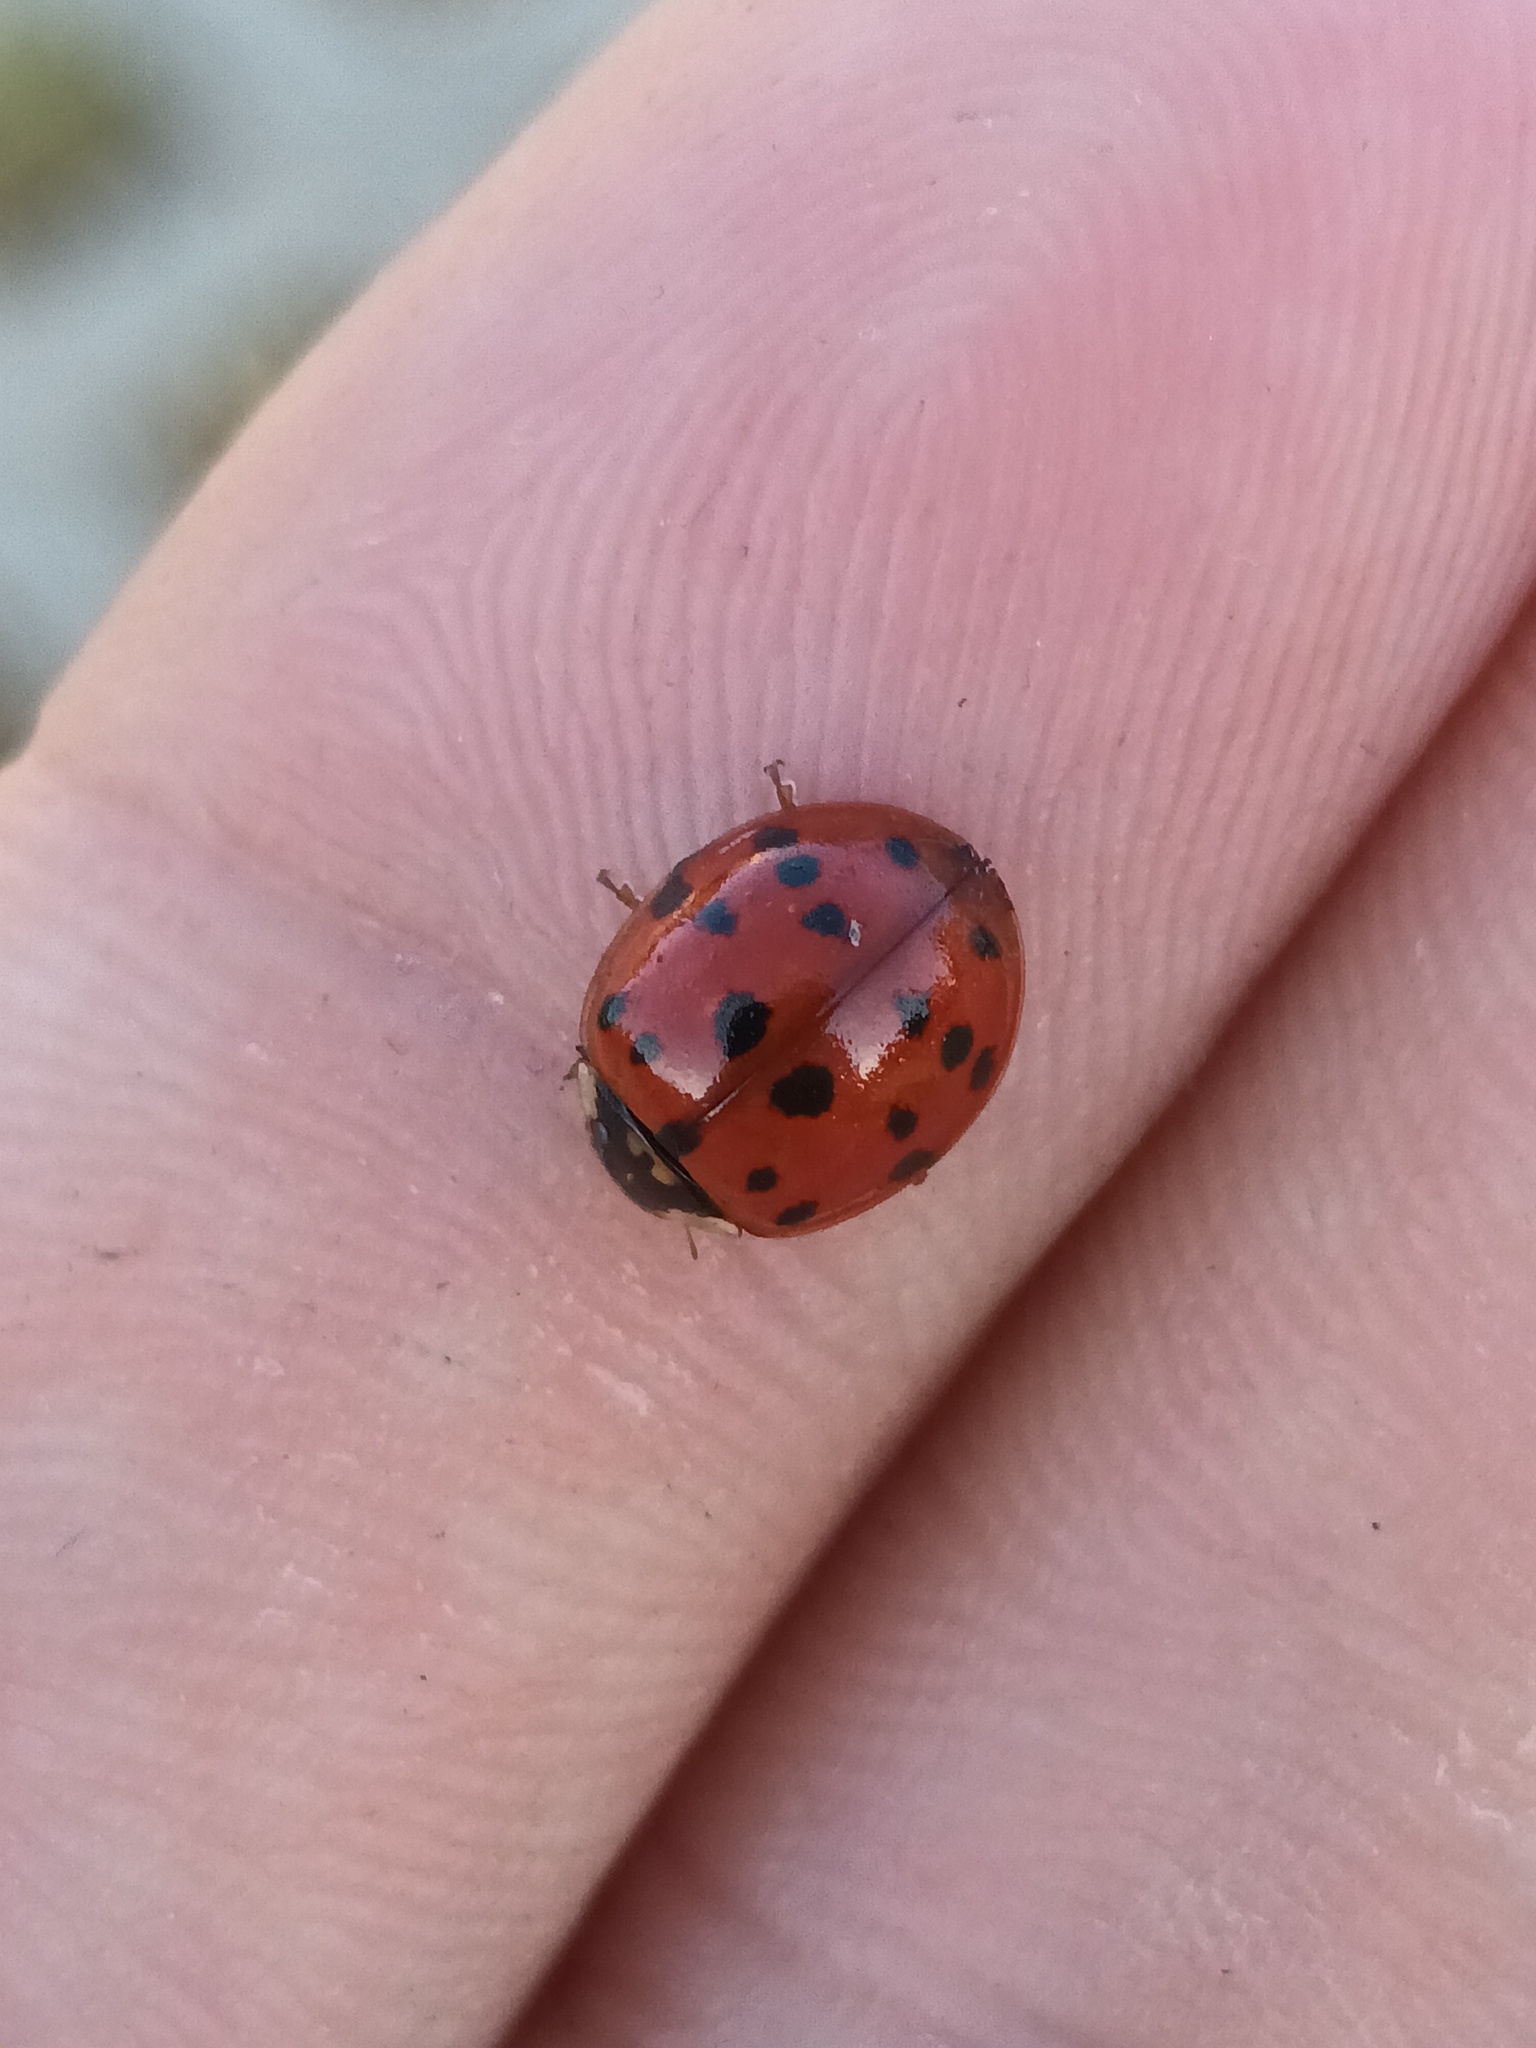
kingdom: Animalia
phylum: Arthropoda
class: Insecta
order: Coleoptera
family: Coccinellidae
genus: Harmonia
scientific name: Harmonia axyridis
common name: Harlequin ladybird
